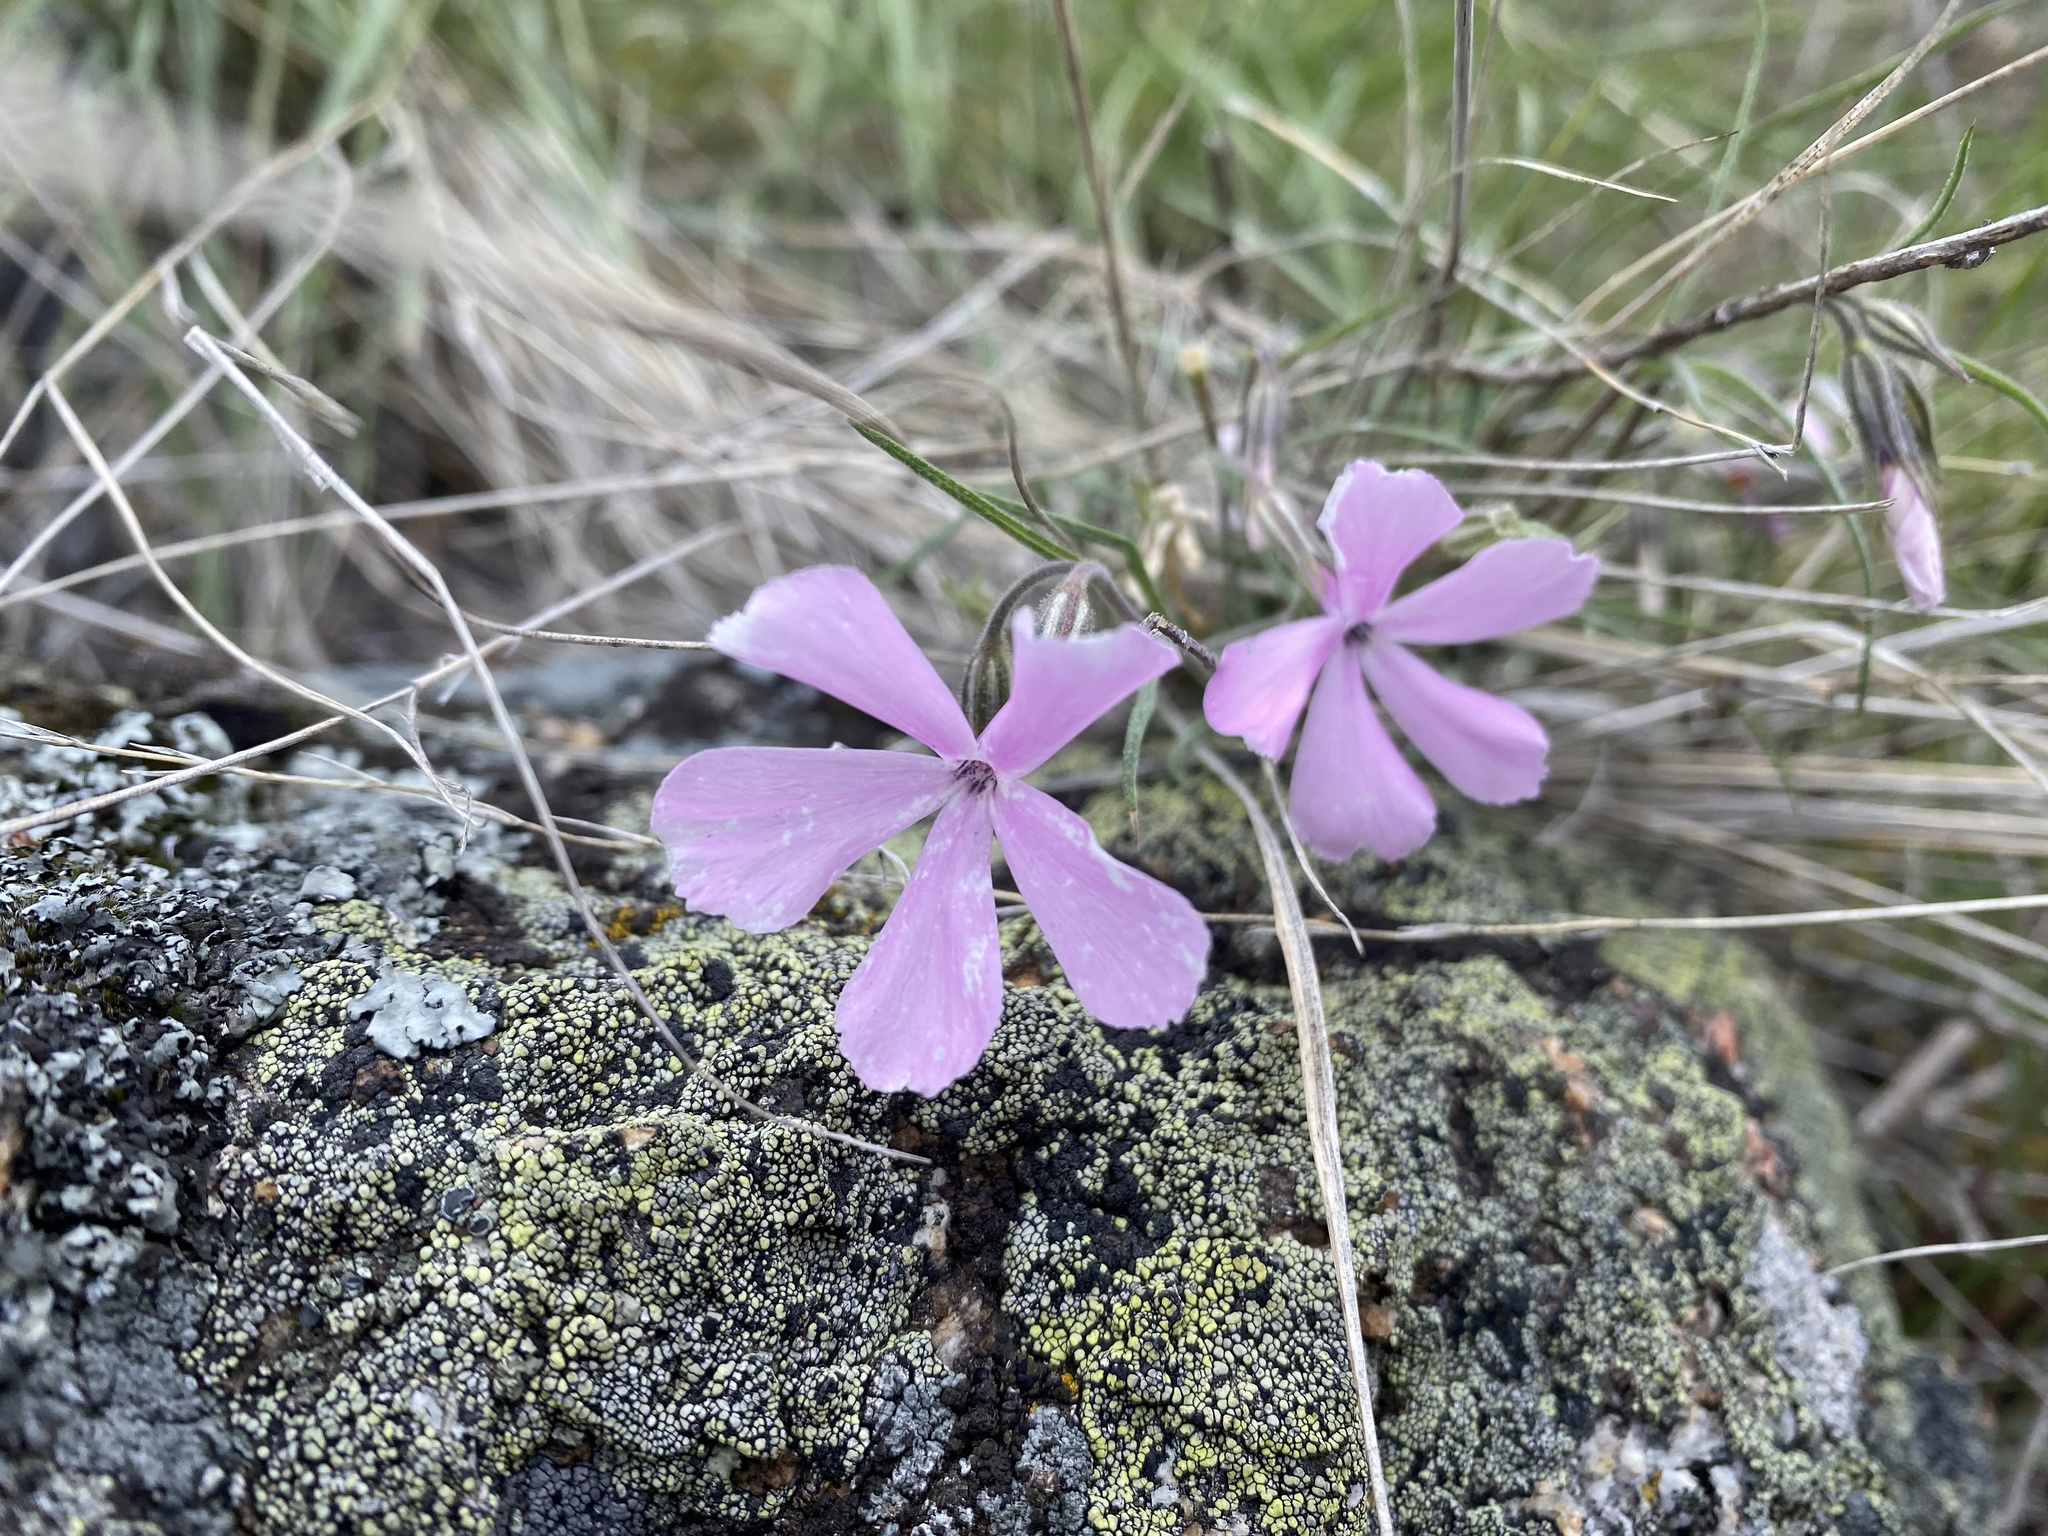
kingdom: Plantae
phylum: Tracheophyta
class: Magnoliopsida
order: Ericales
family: Polemoniaceae
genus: Phlox
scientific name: Phlox longifolia
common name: Longleaf phlox
